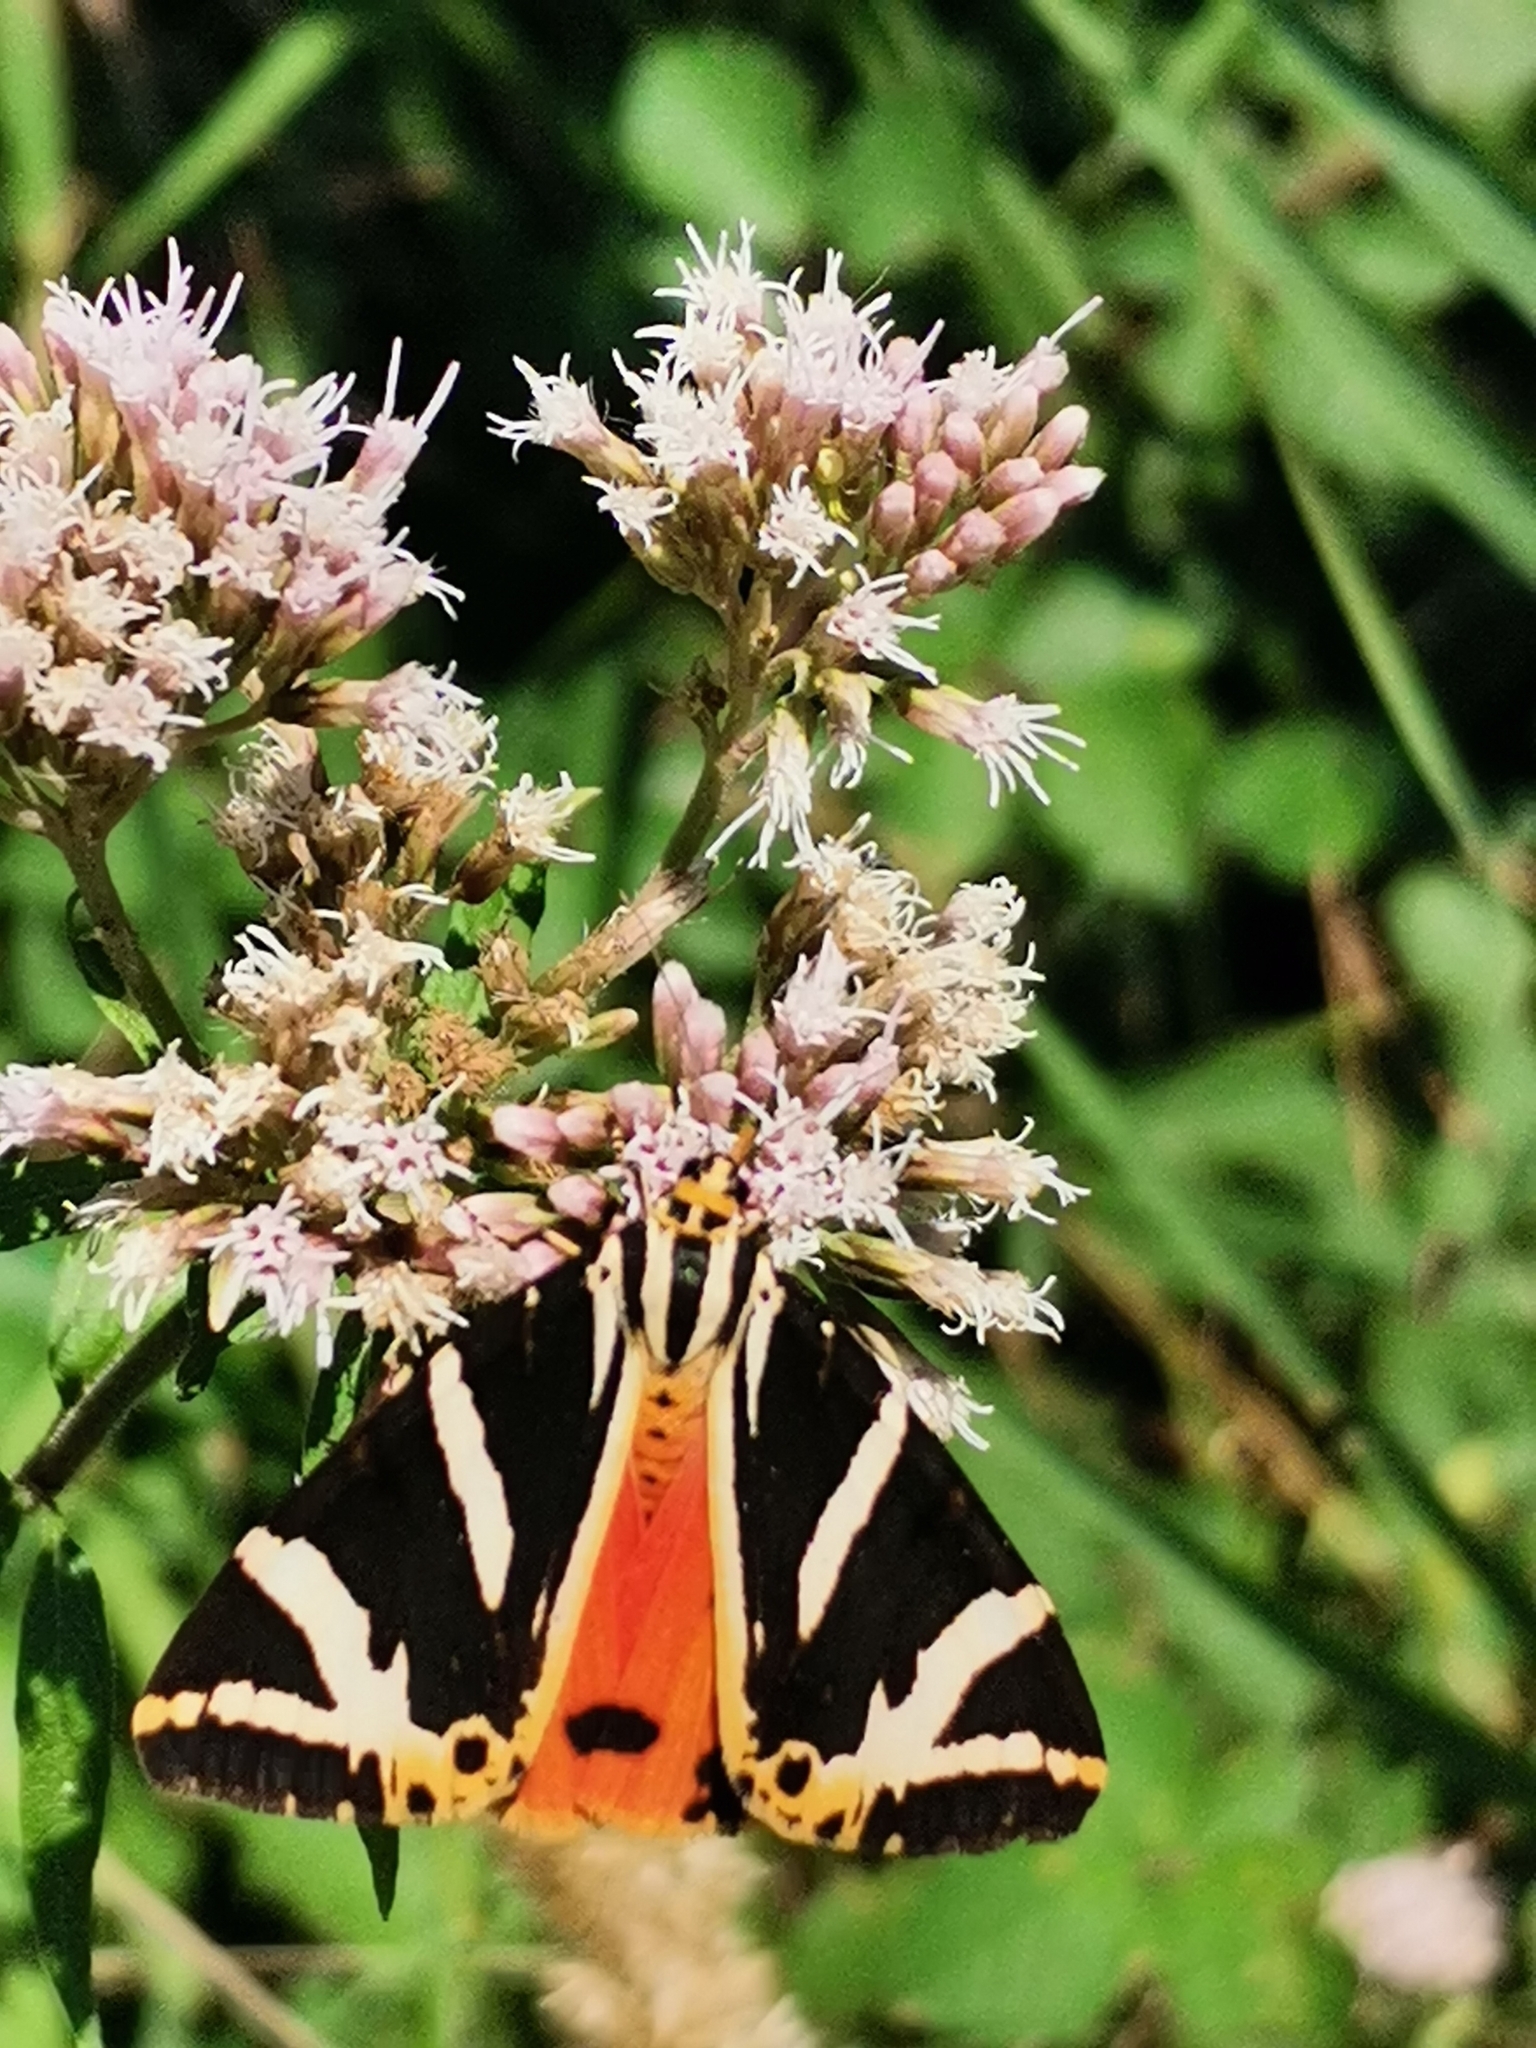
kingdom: Animalia
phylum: Arthropoda
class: Insecta
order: Lepidoptera
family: Erebidae
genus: Euplagia
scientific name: Euplagia quadripunctaria
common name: Jersey tiger
